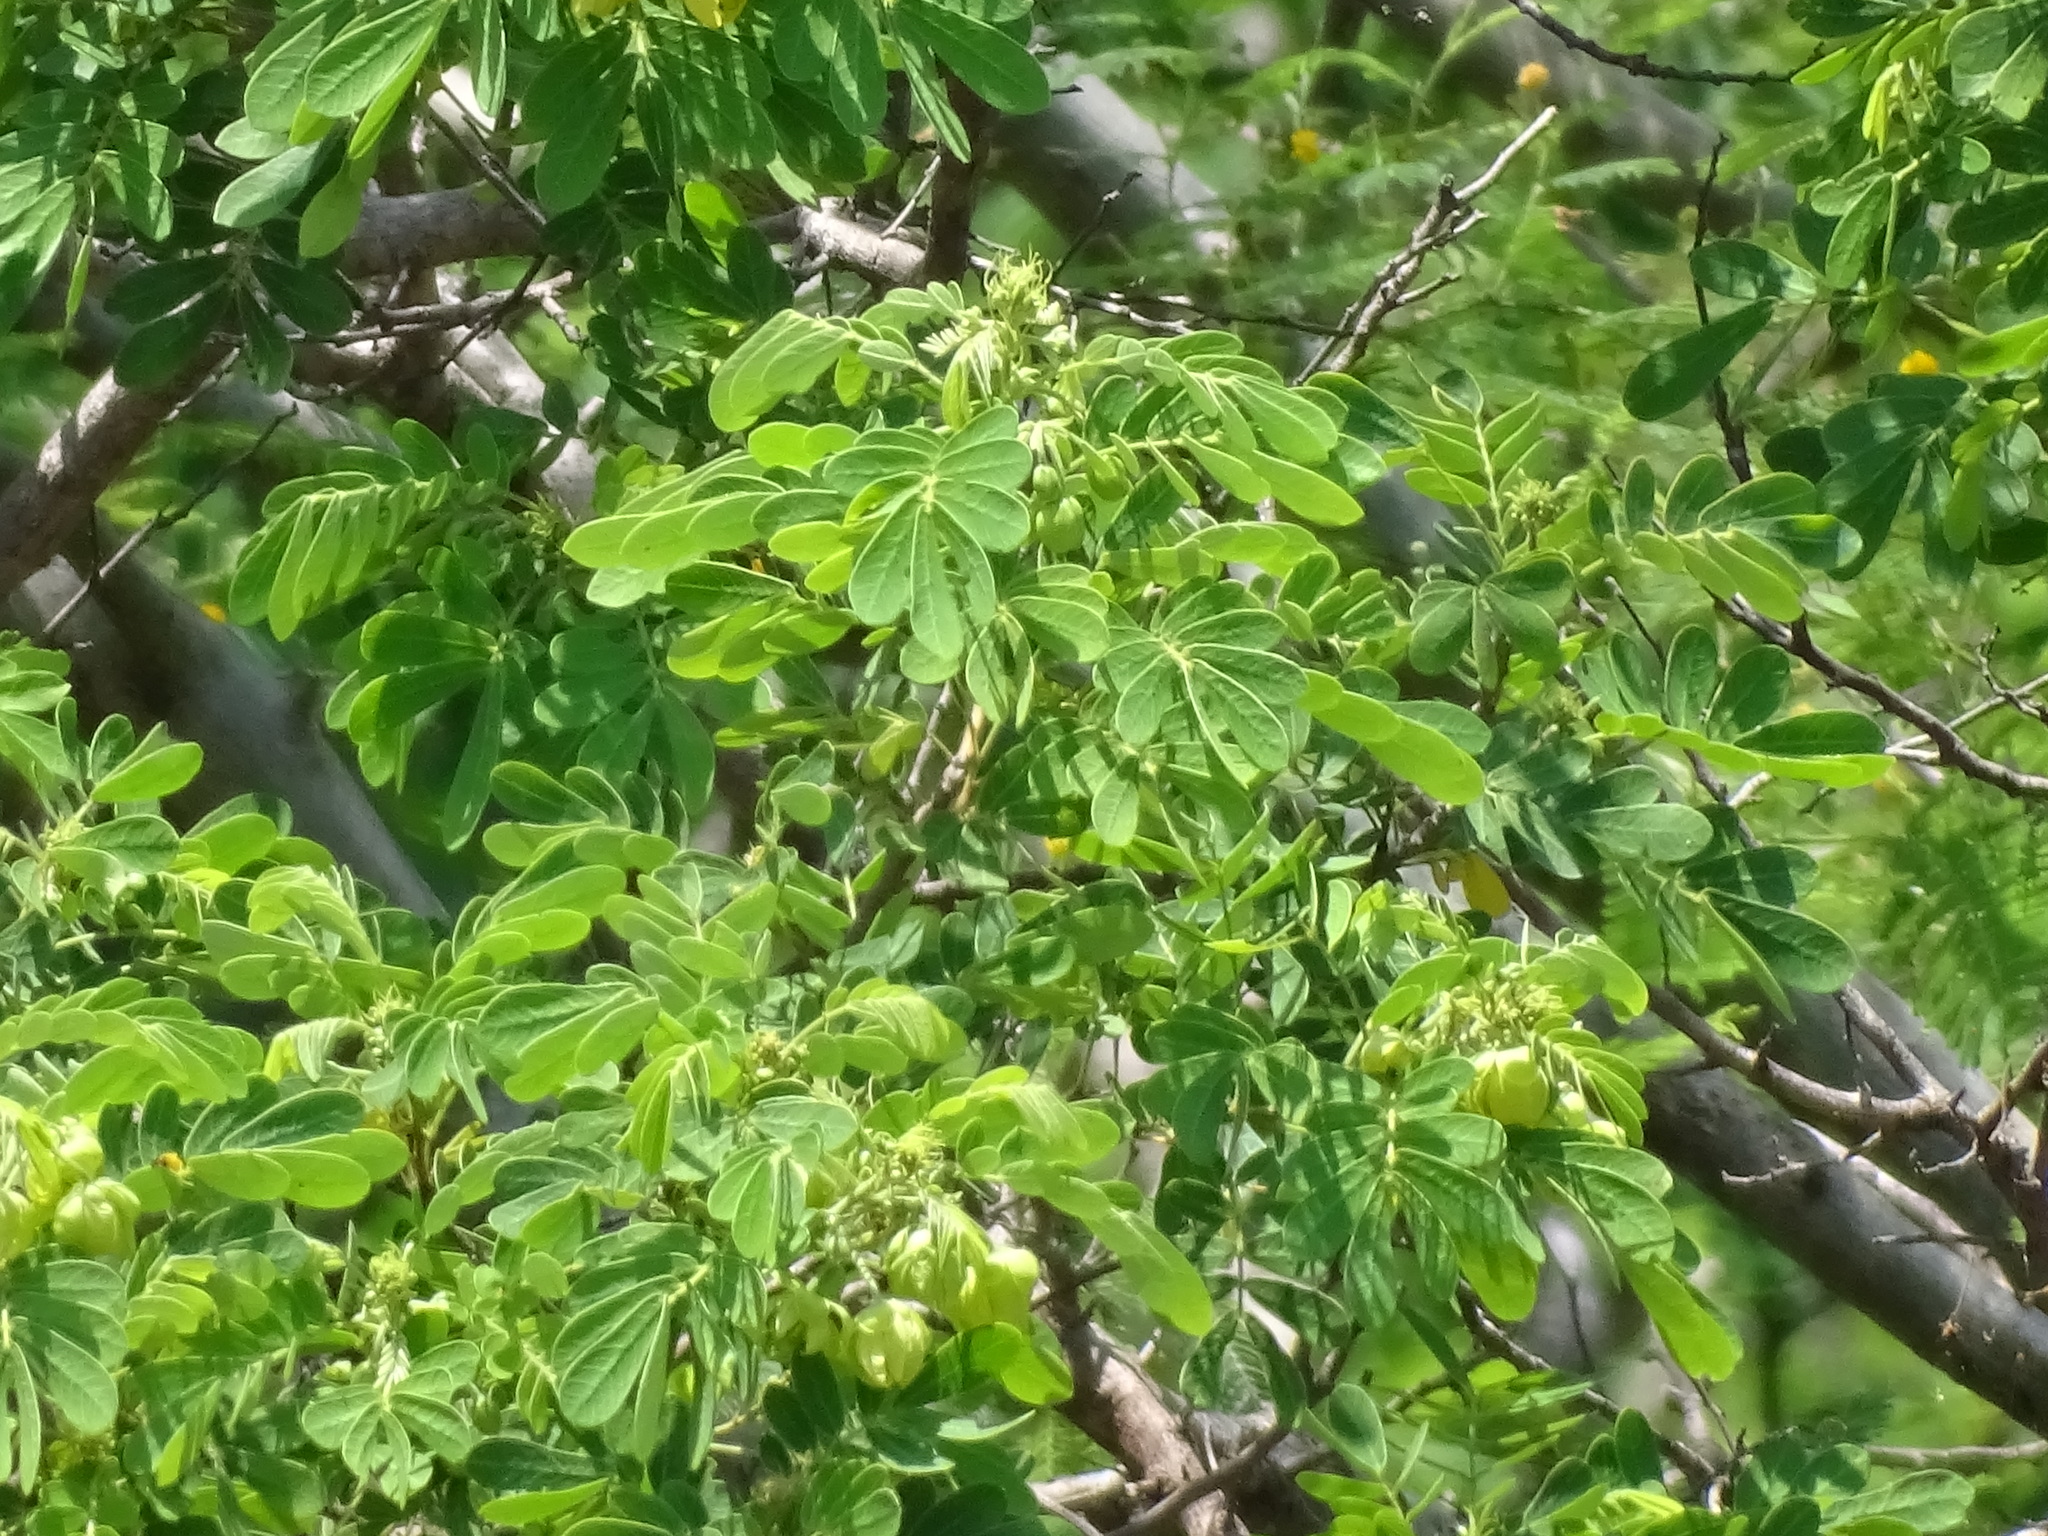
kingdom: Plantae
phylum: Tracheophyta
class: Magnoliopsida
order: Fabales
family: Fabaceae
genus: Senna
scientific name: Senna pallida
